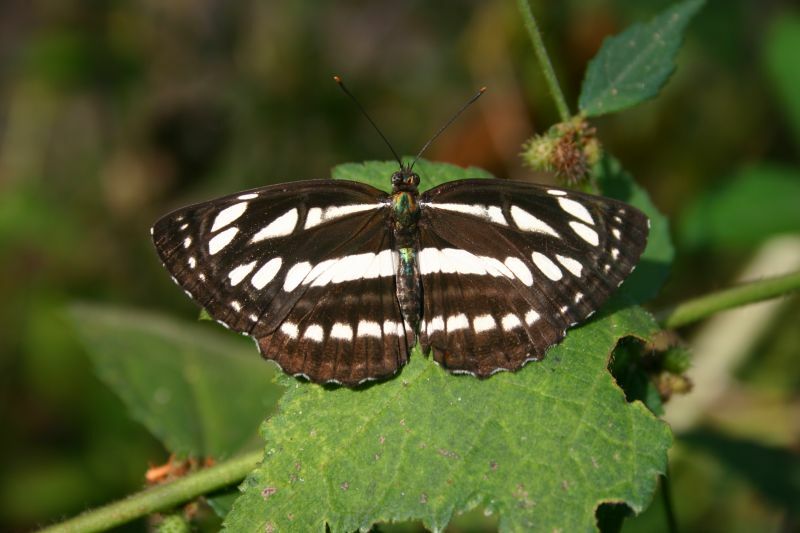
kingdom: Animalia
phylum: Arthropoda
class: Insecta
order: Lepidoptera
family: Nymphalidae
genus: Neptis
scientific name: Neptis hylas
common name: Common sailer
